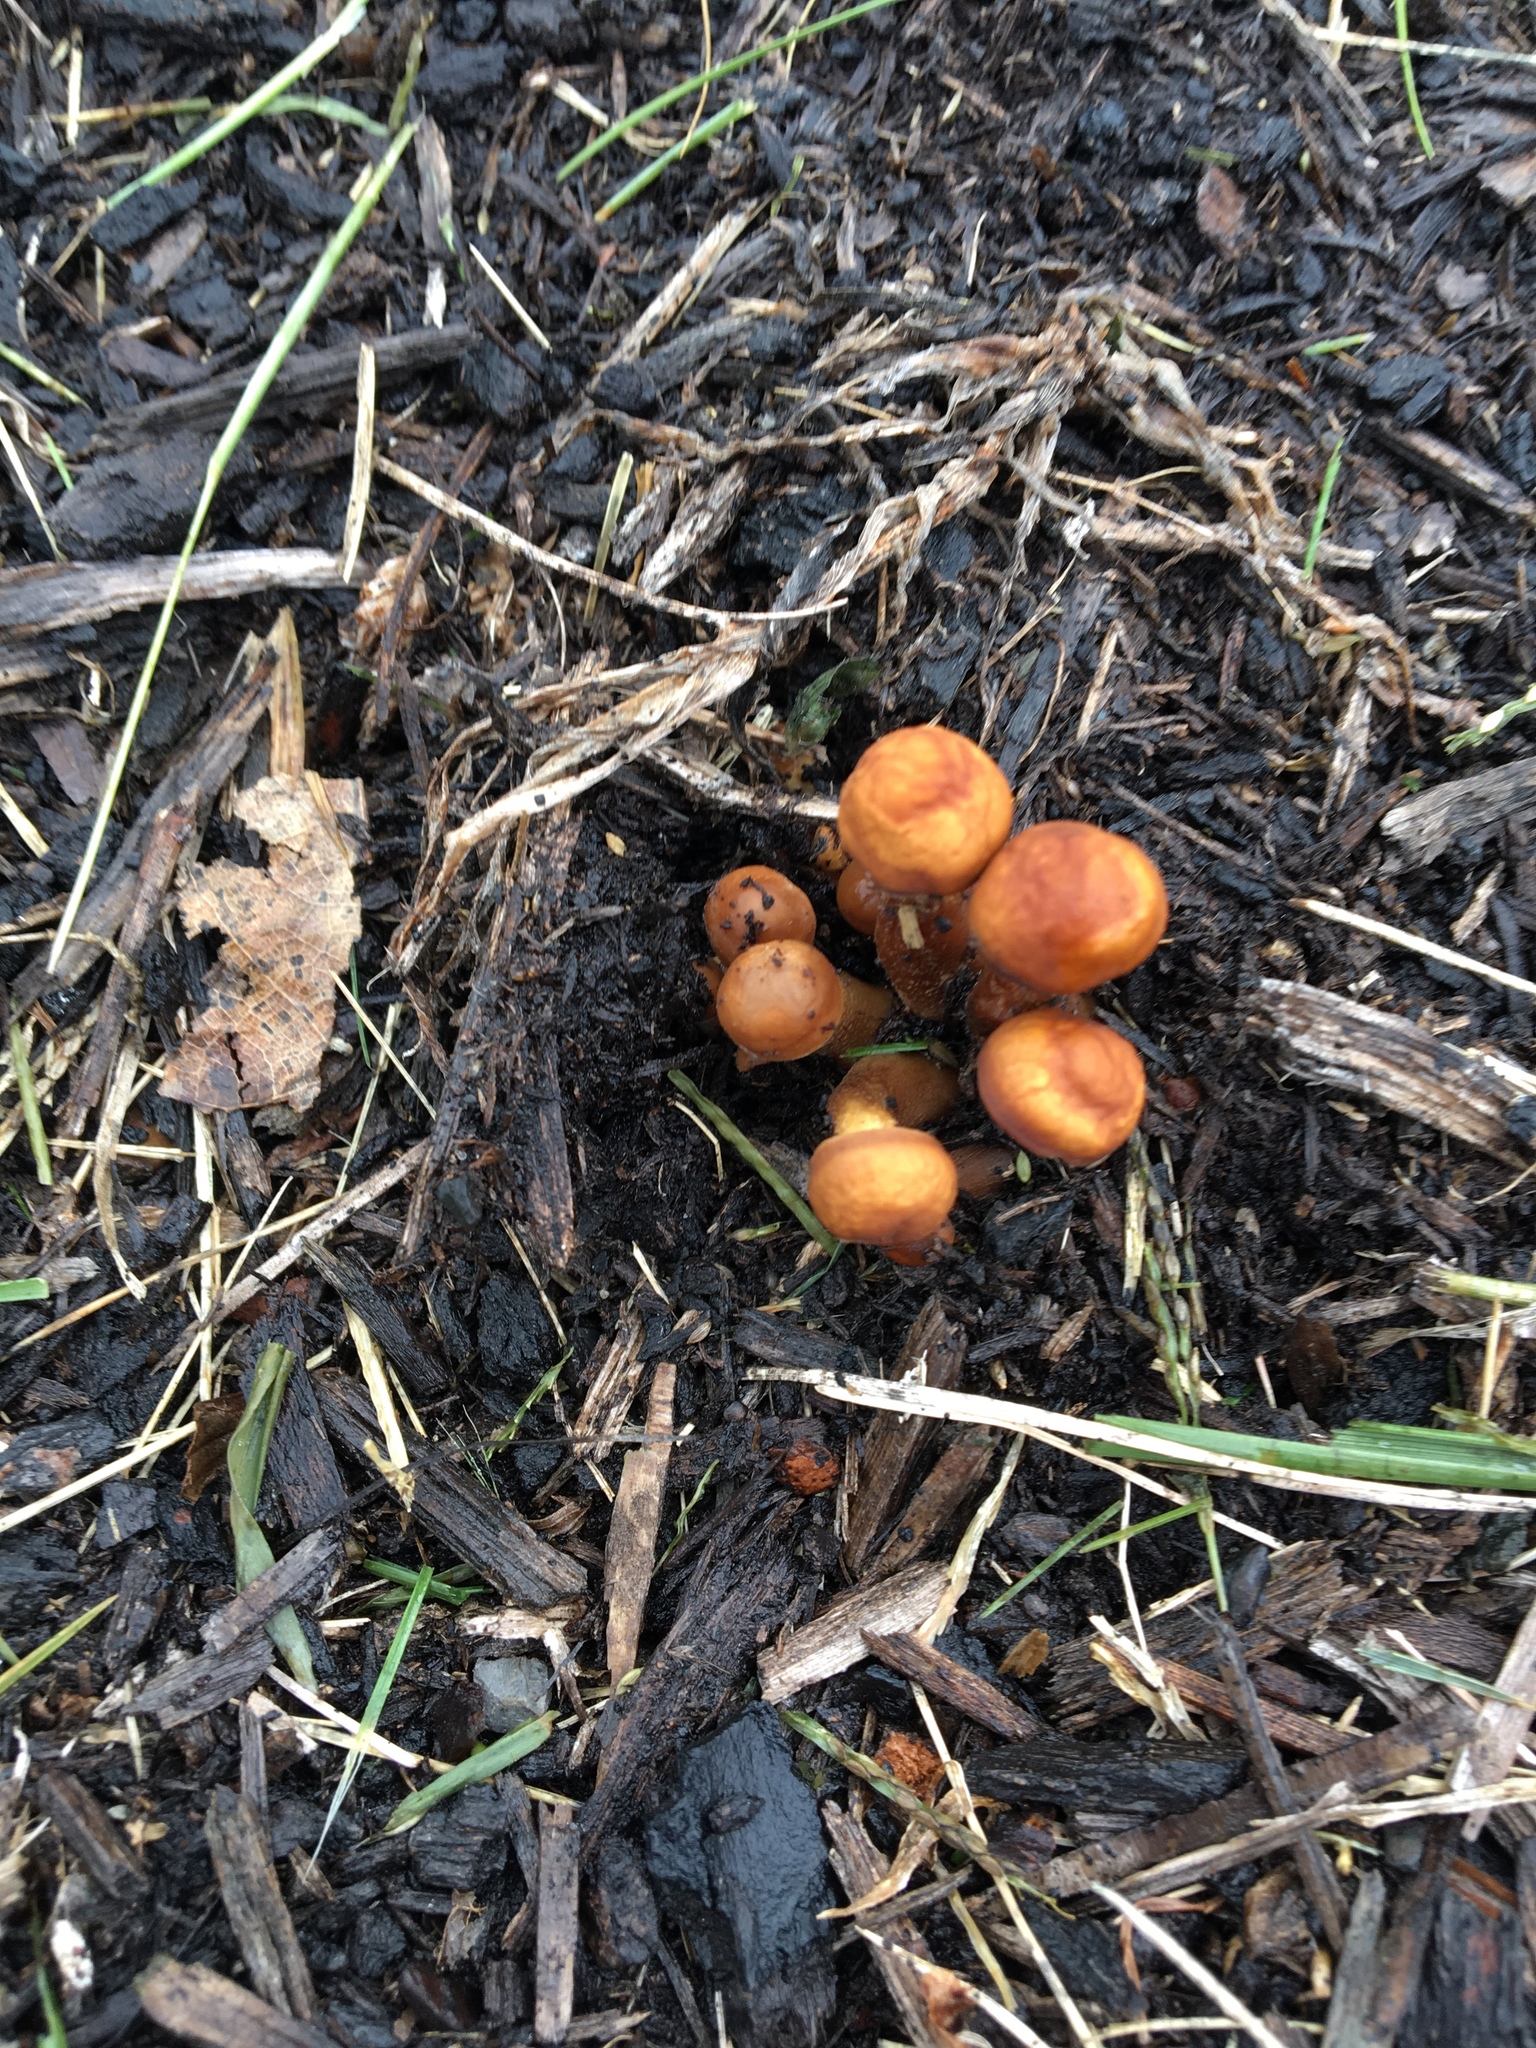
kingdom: Fungi
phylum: Basidiomycota
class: Agaricomycetes
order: Agaricales
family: Physalacriaceae
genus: Flammulina
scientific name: Flammulina velutipes
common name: Velvet shank
